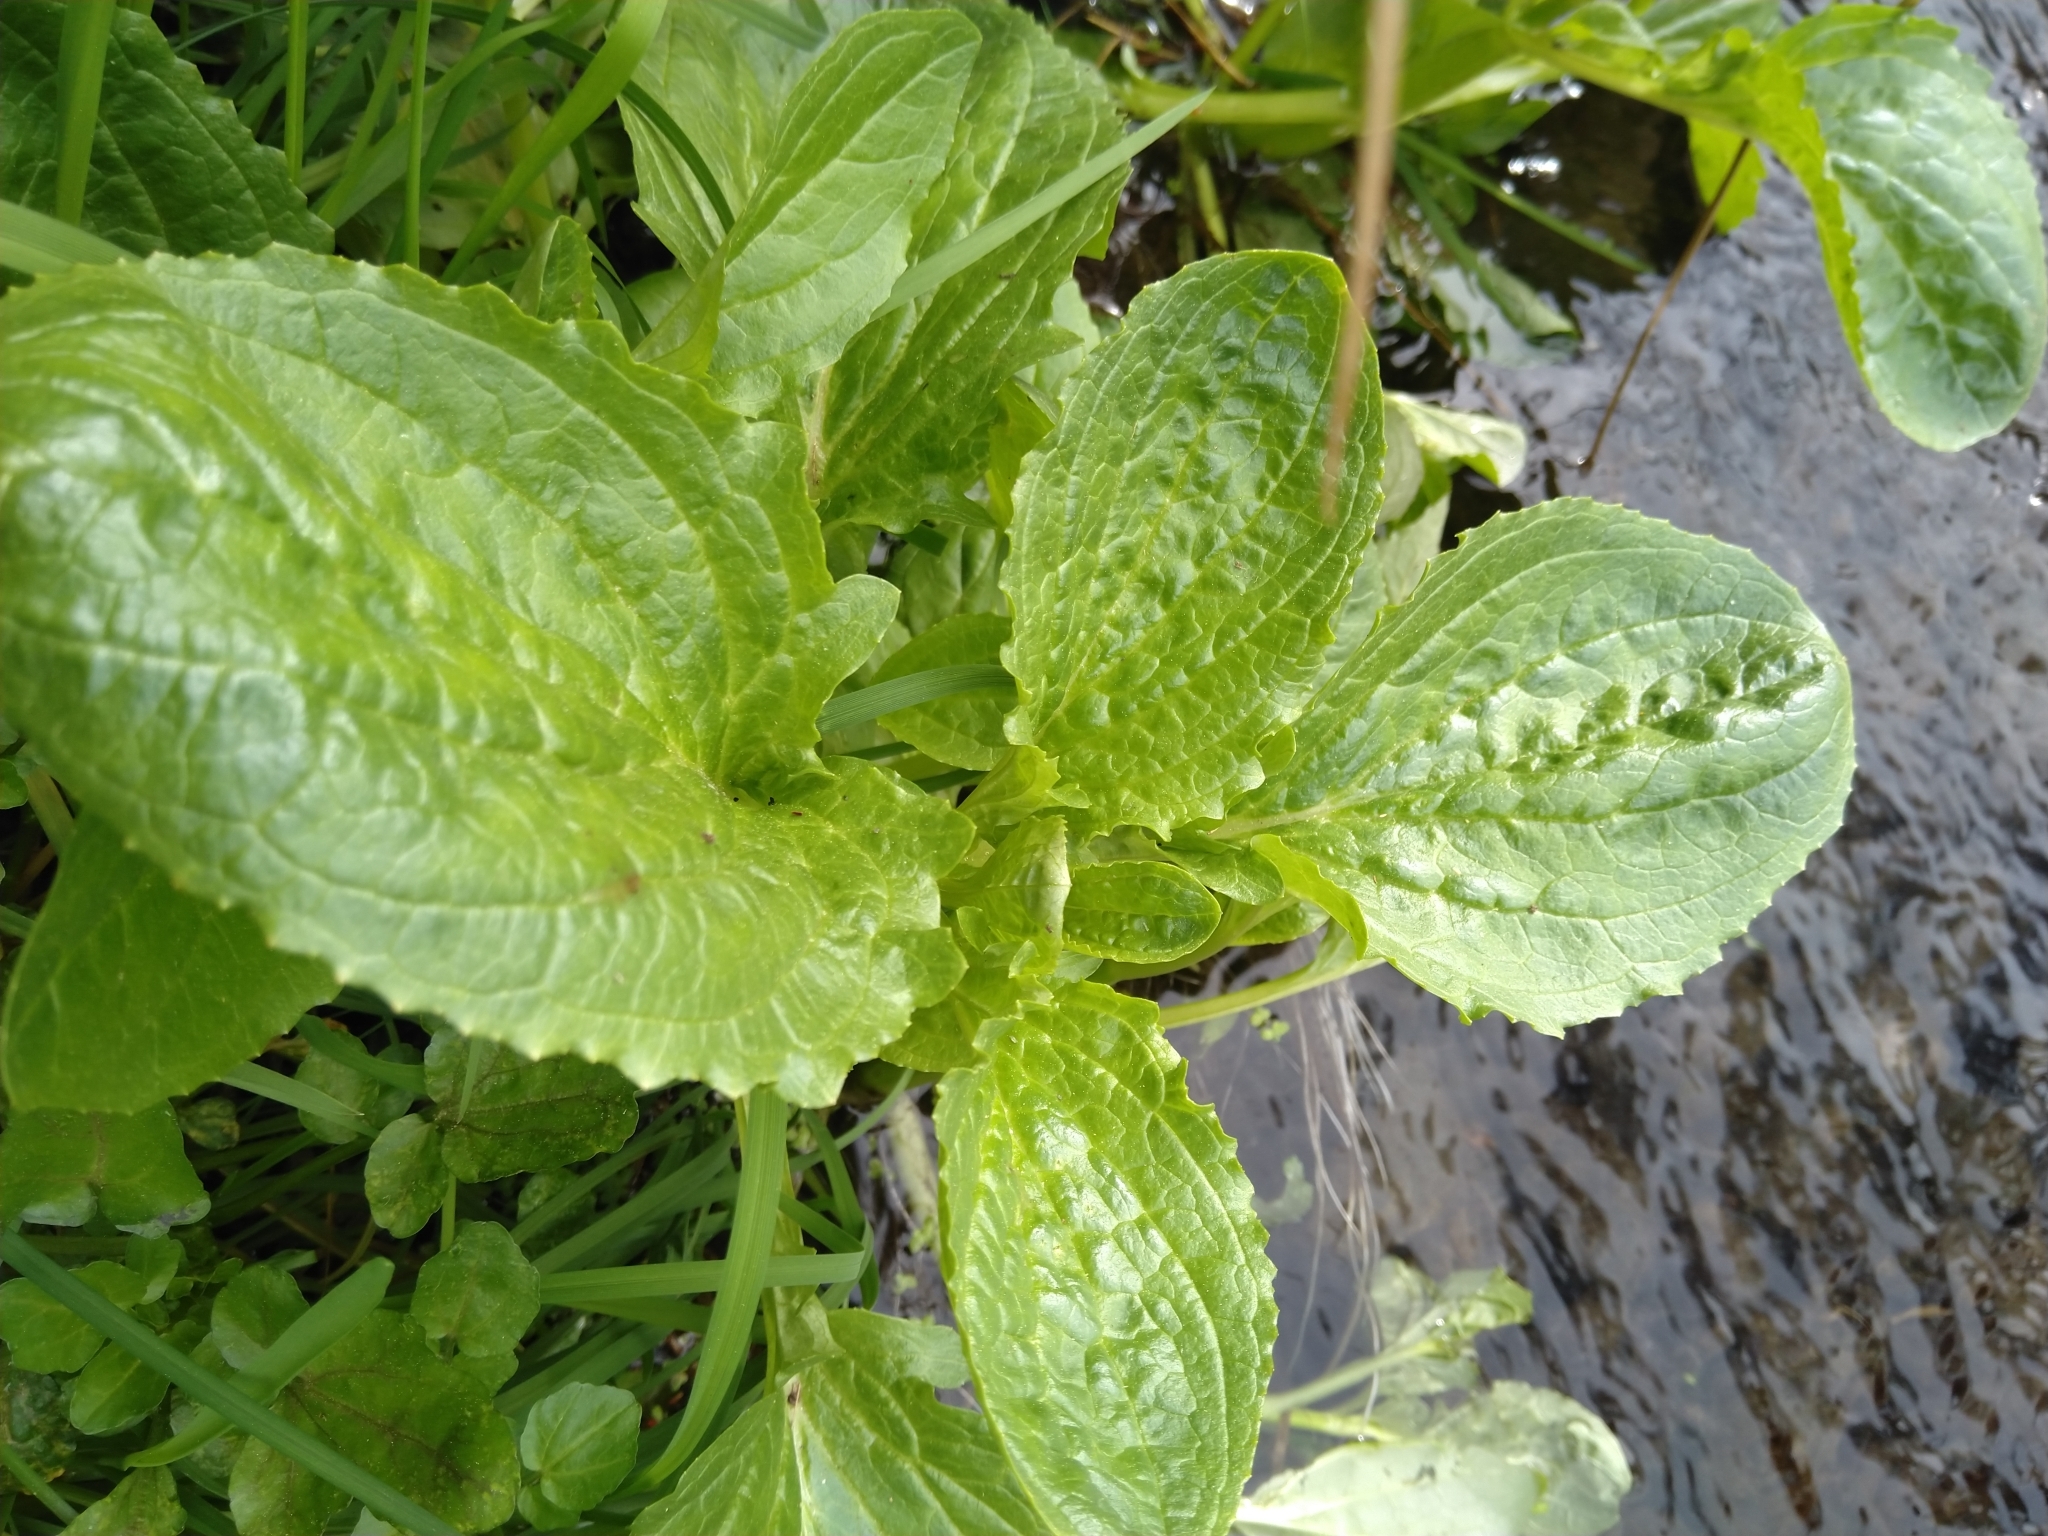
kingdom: Plantae
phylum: Tracheophyta
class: Magnoliopsida
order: Lamiales
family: Phrymaceae
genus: Erythranthe
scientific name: Erythranthe guttata
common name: Monkeyflower
